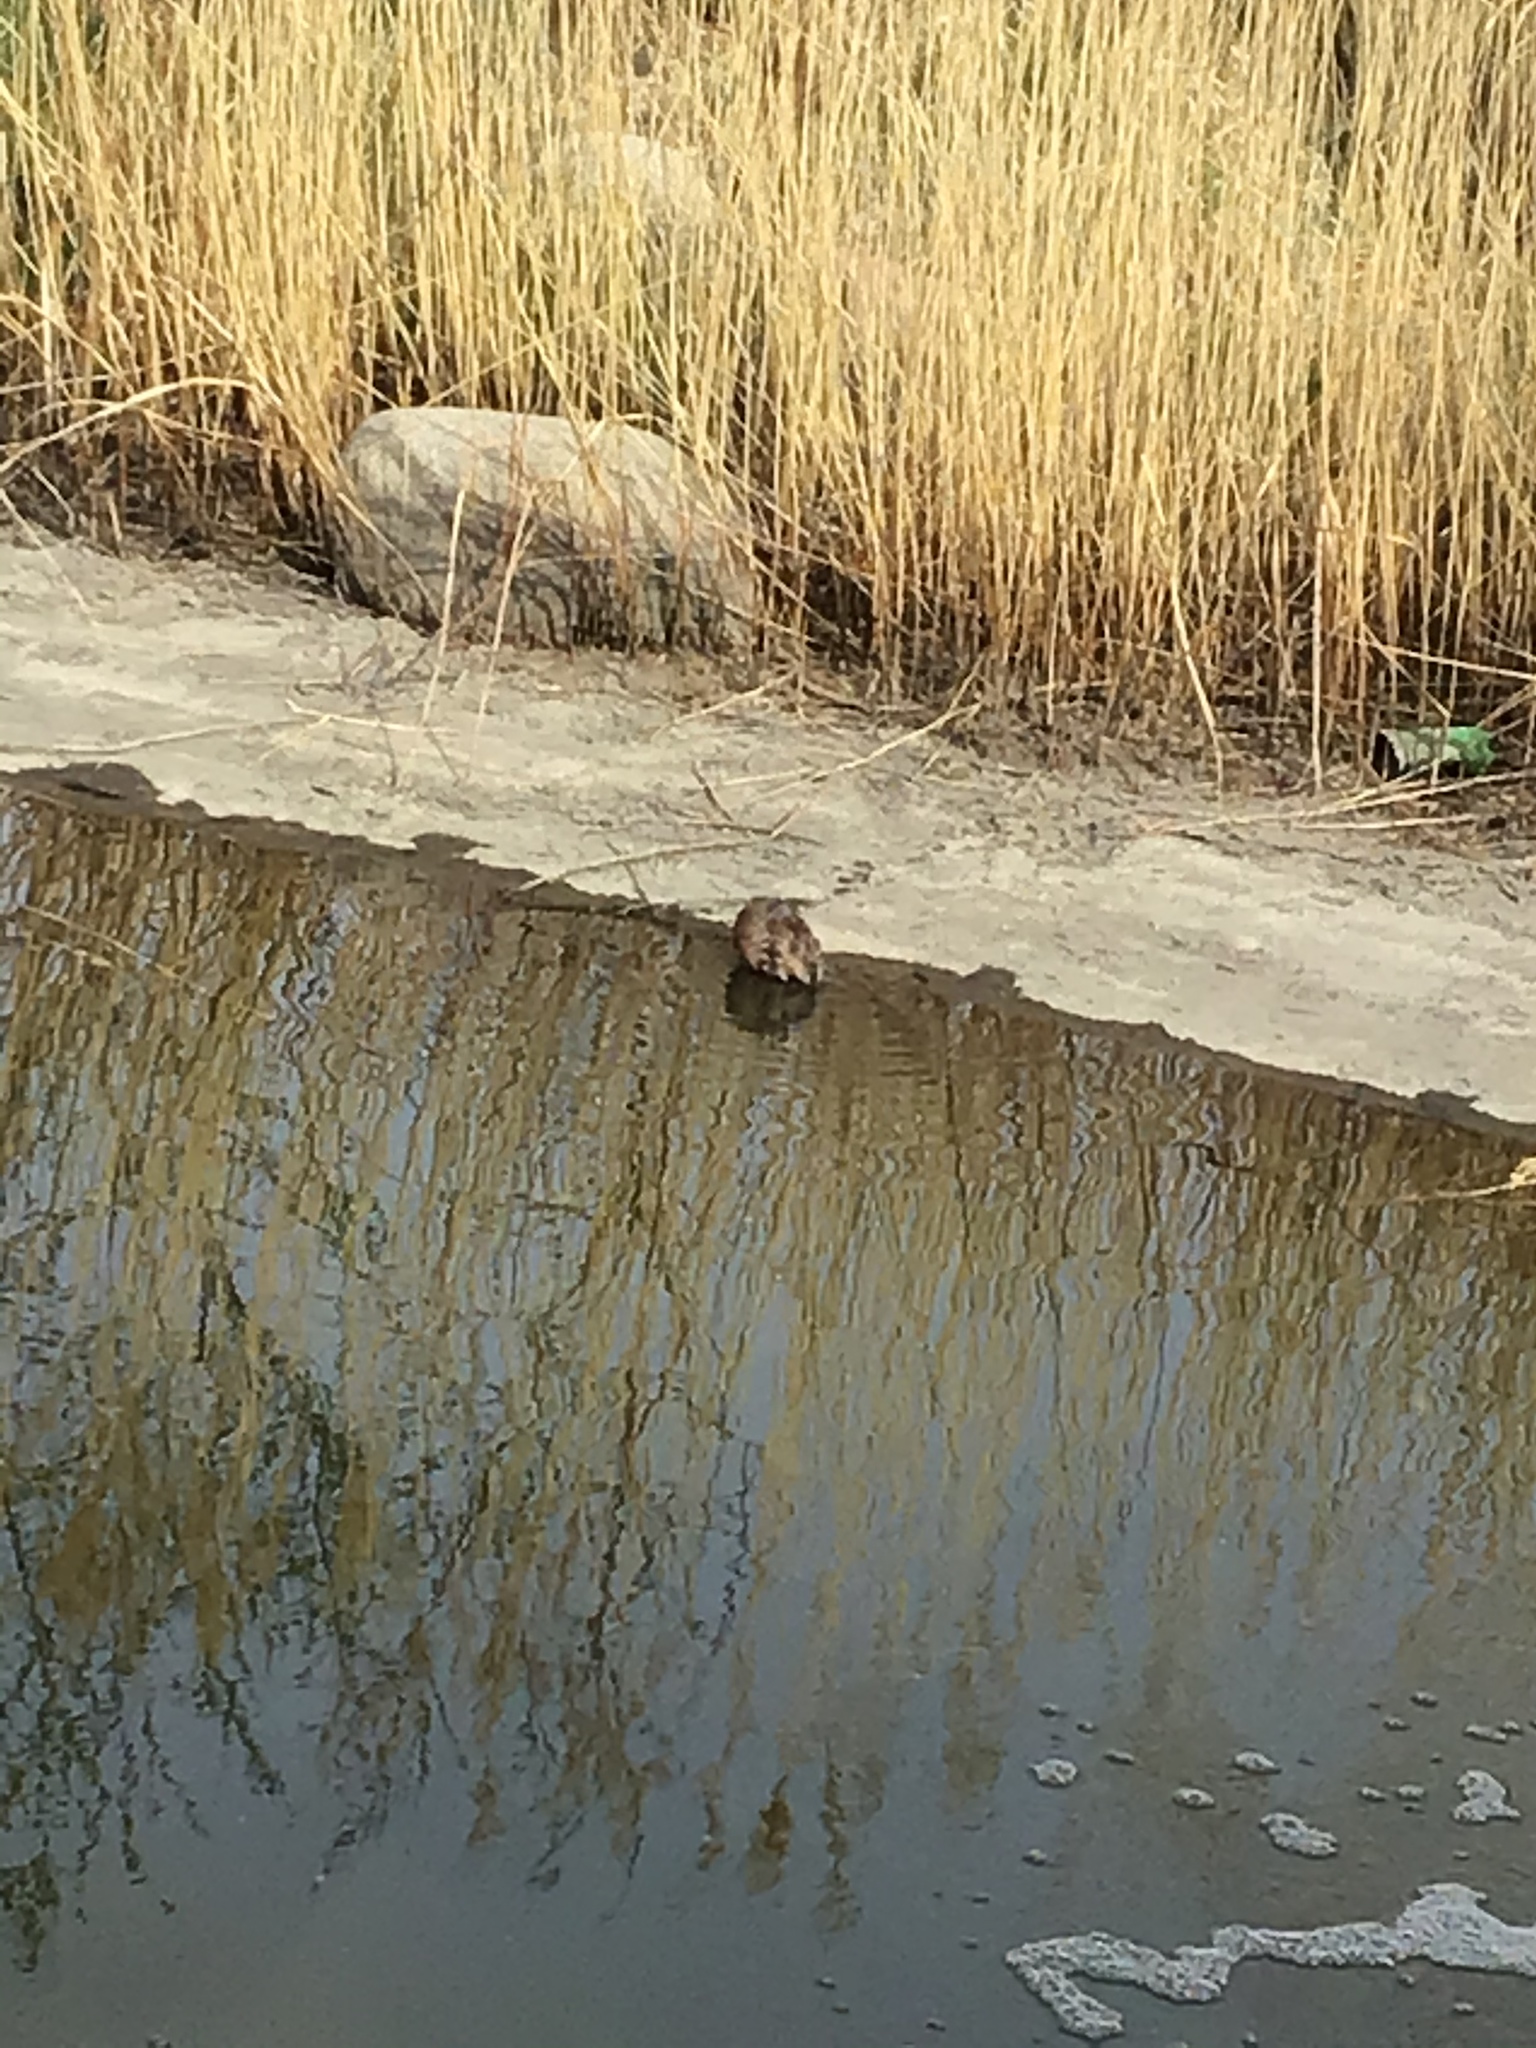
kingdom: Animalia
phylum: Chordata
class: Mammalia
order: Rodentia
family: Cricetidae
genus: Ondatra
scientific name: Ondatra zibethicus
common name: Muskrat
